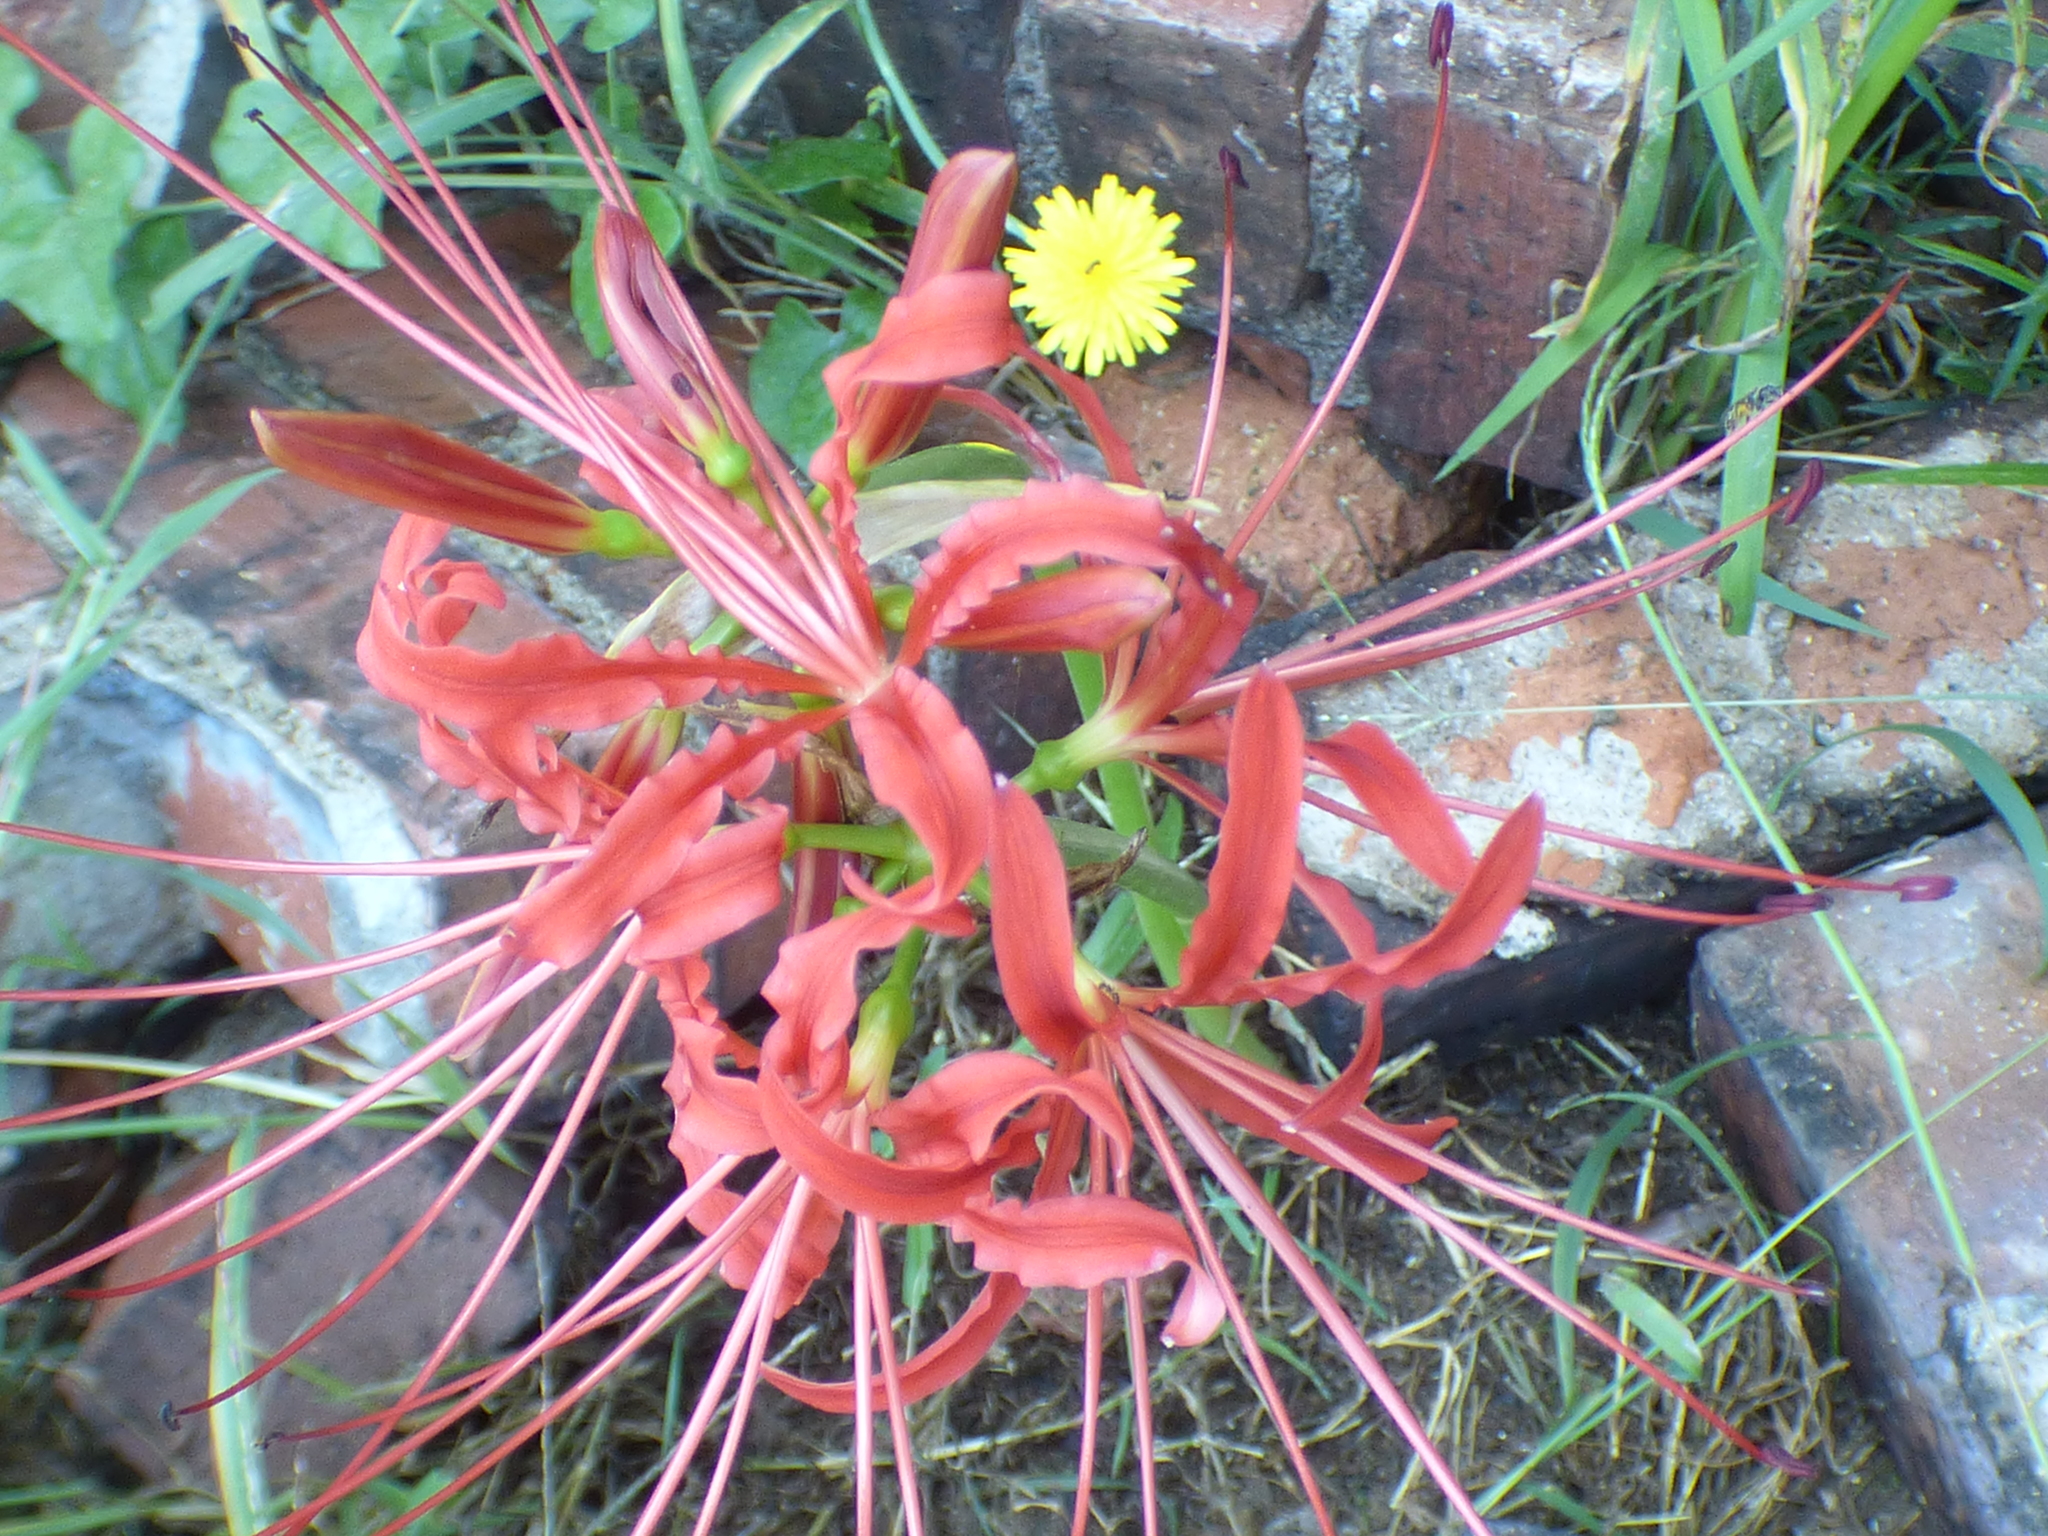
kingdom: Plantae
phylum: Tracheophyta
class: Liliopsida
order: Asparagales
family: Amaryllidaceae
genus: Lycoris
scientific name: Lycoris radiata
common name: Red spider lily
